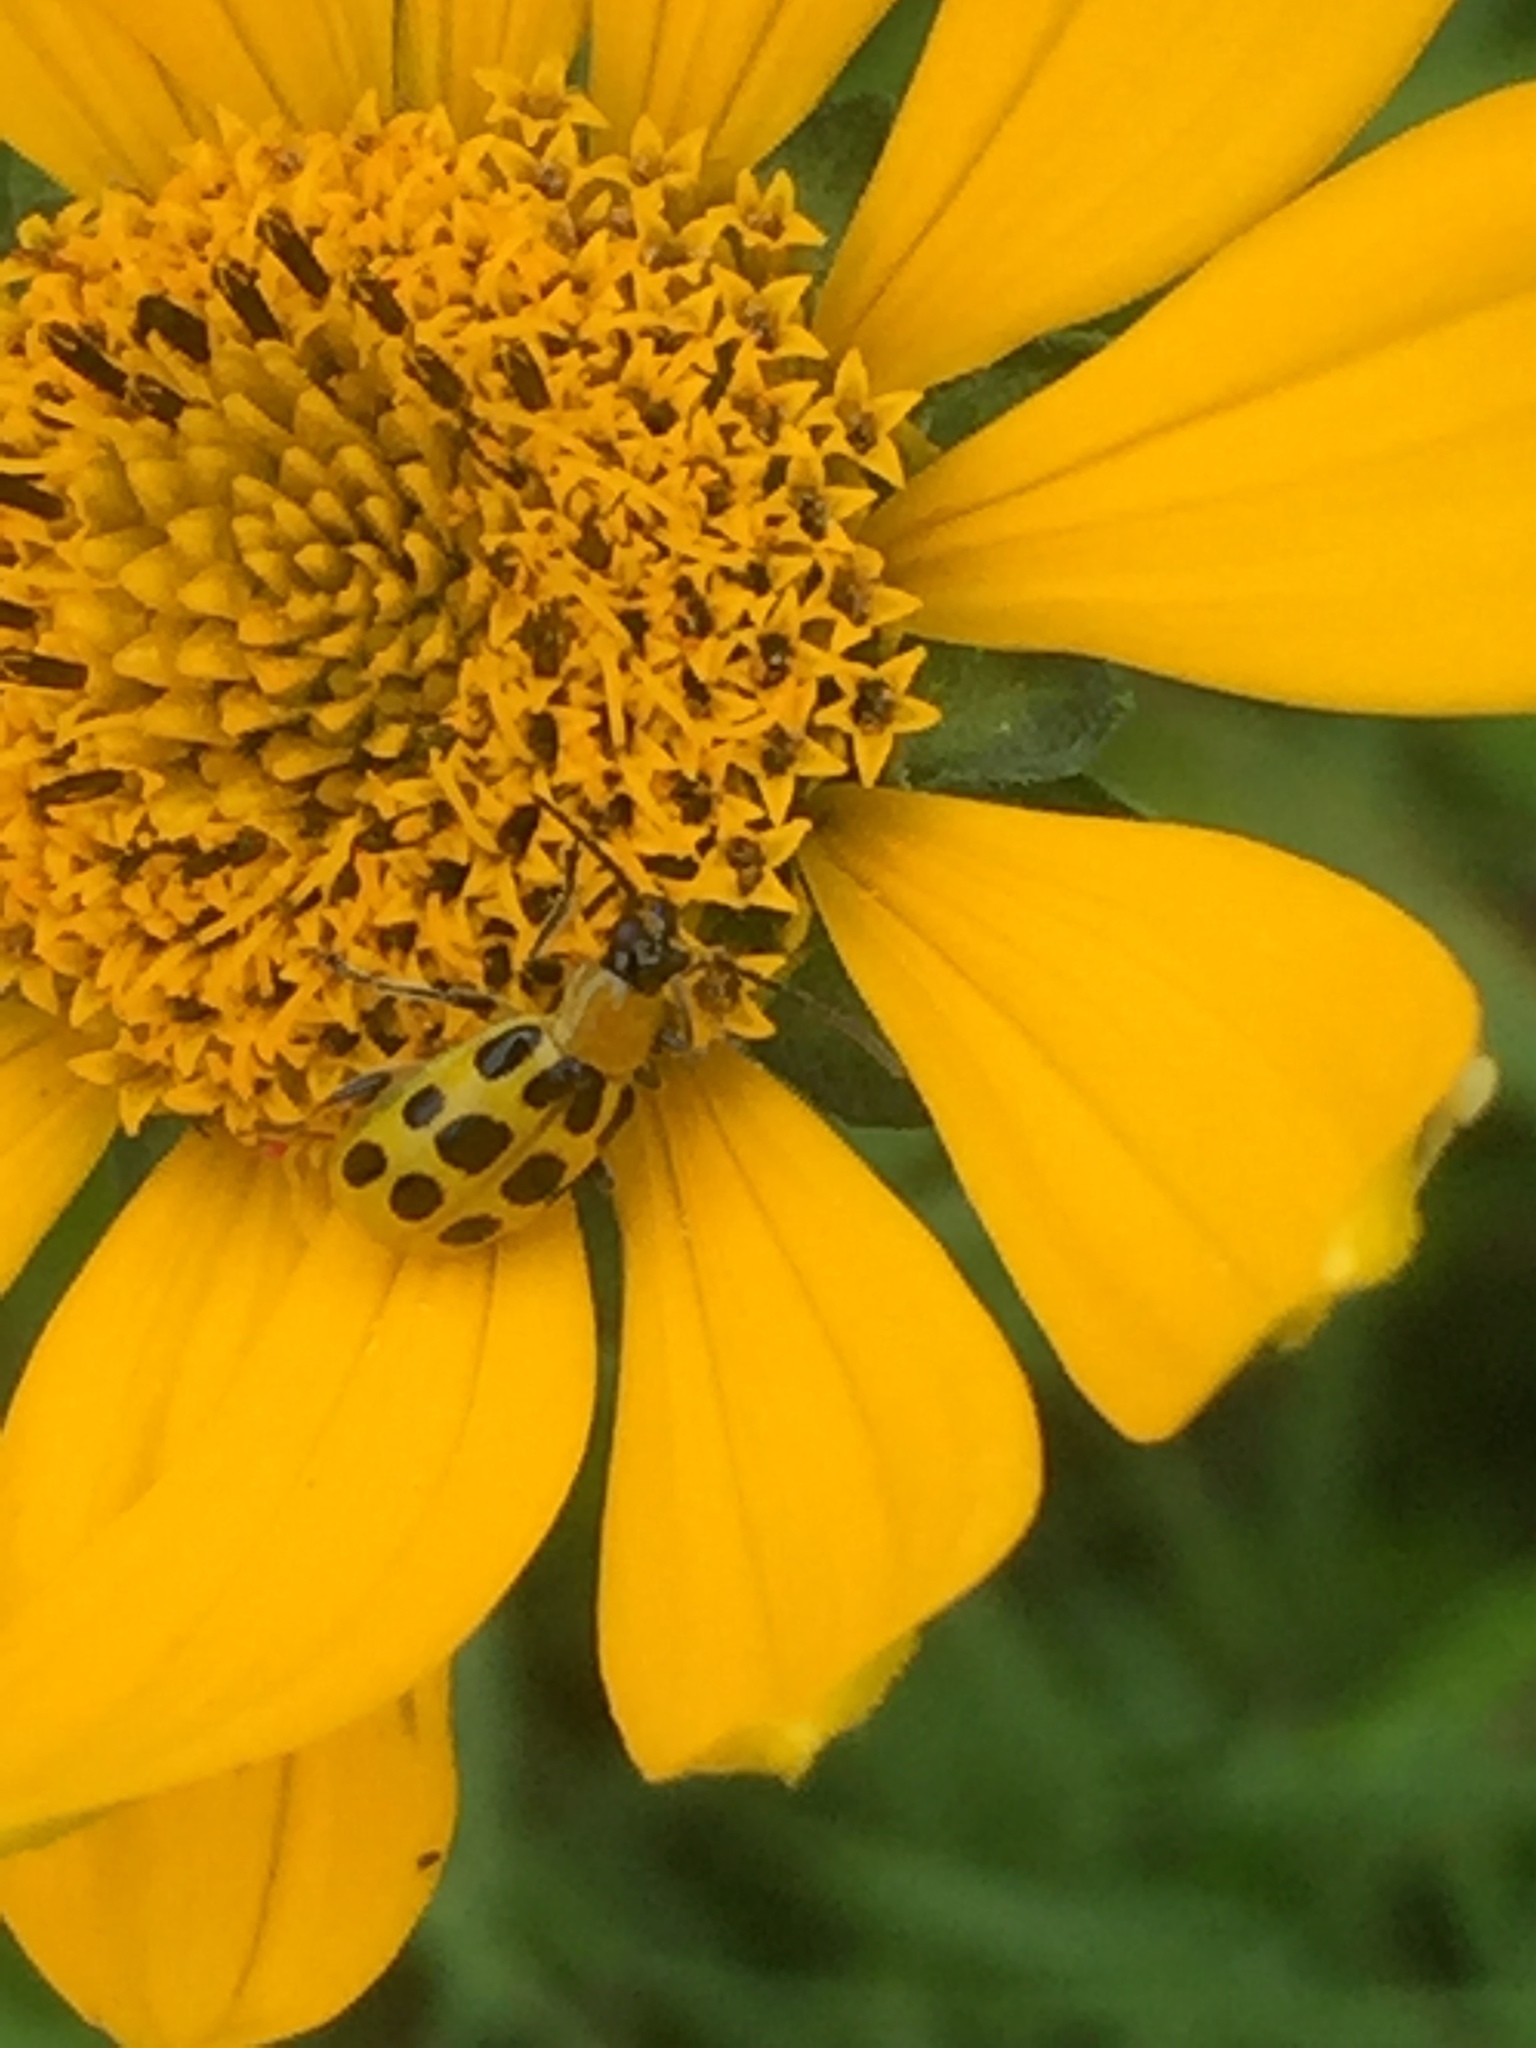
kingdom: Animalia
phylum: Arthropoda
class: Insecta
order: Coleoptera
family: Chrysomelidae
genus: Diabrotica
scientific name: Diabrotica undecimpunctata
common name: Spotted cucumber beetle
